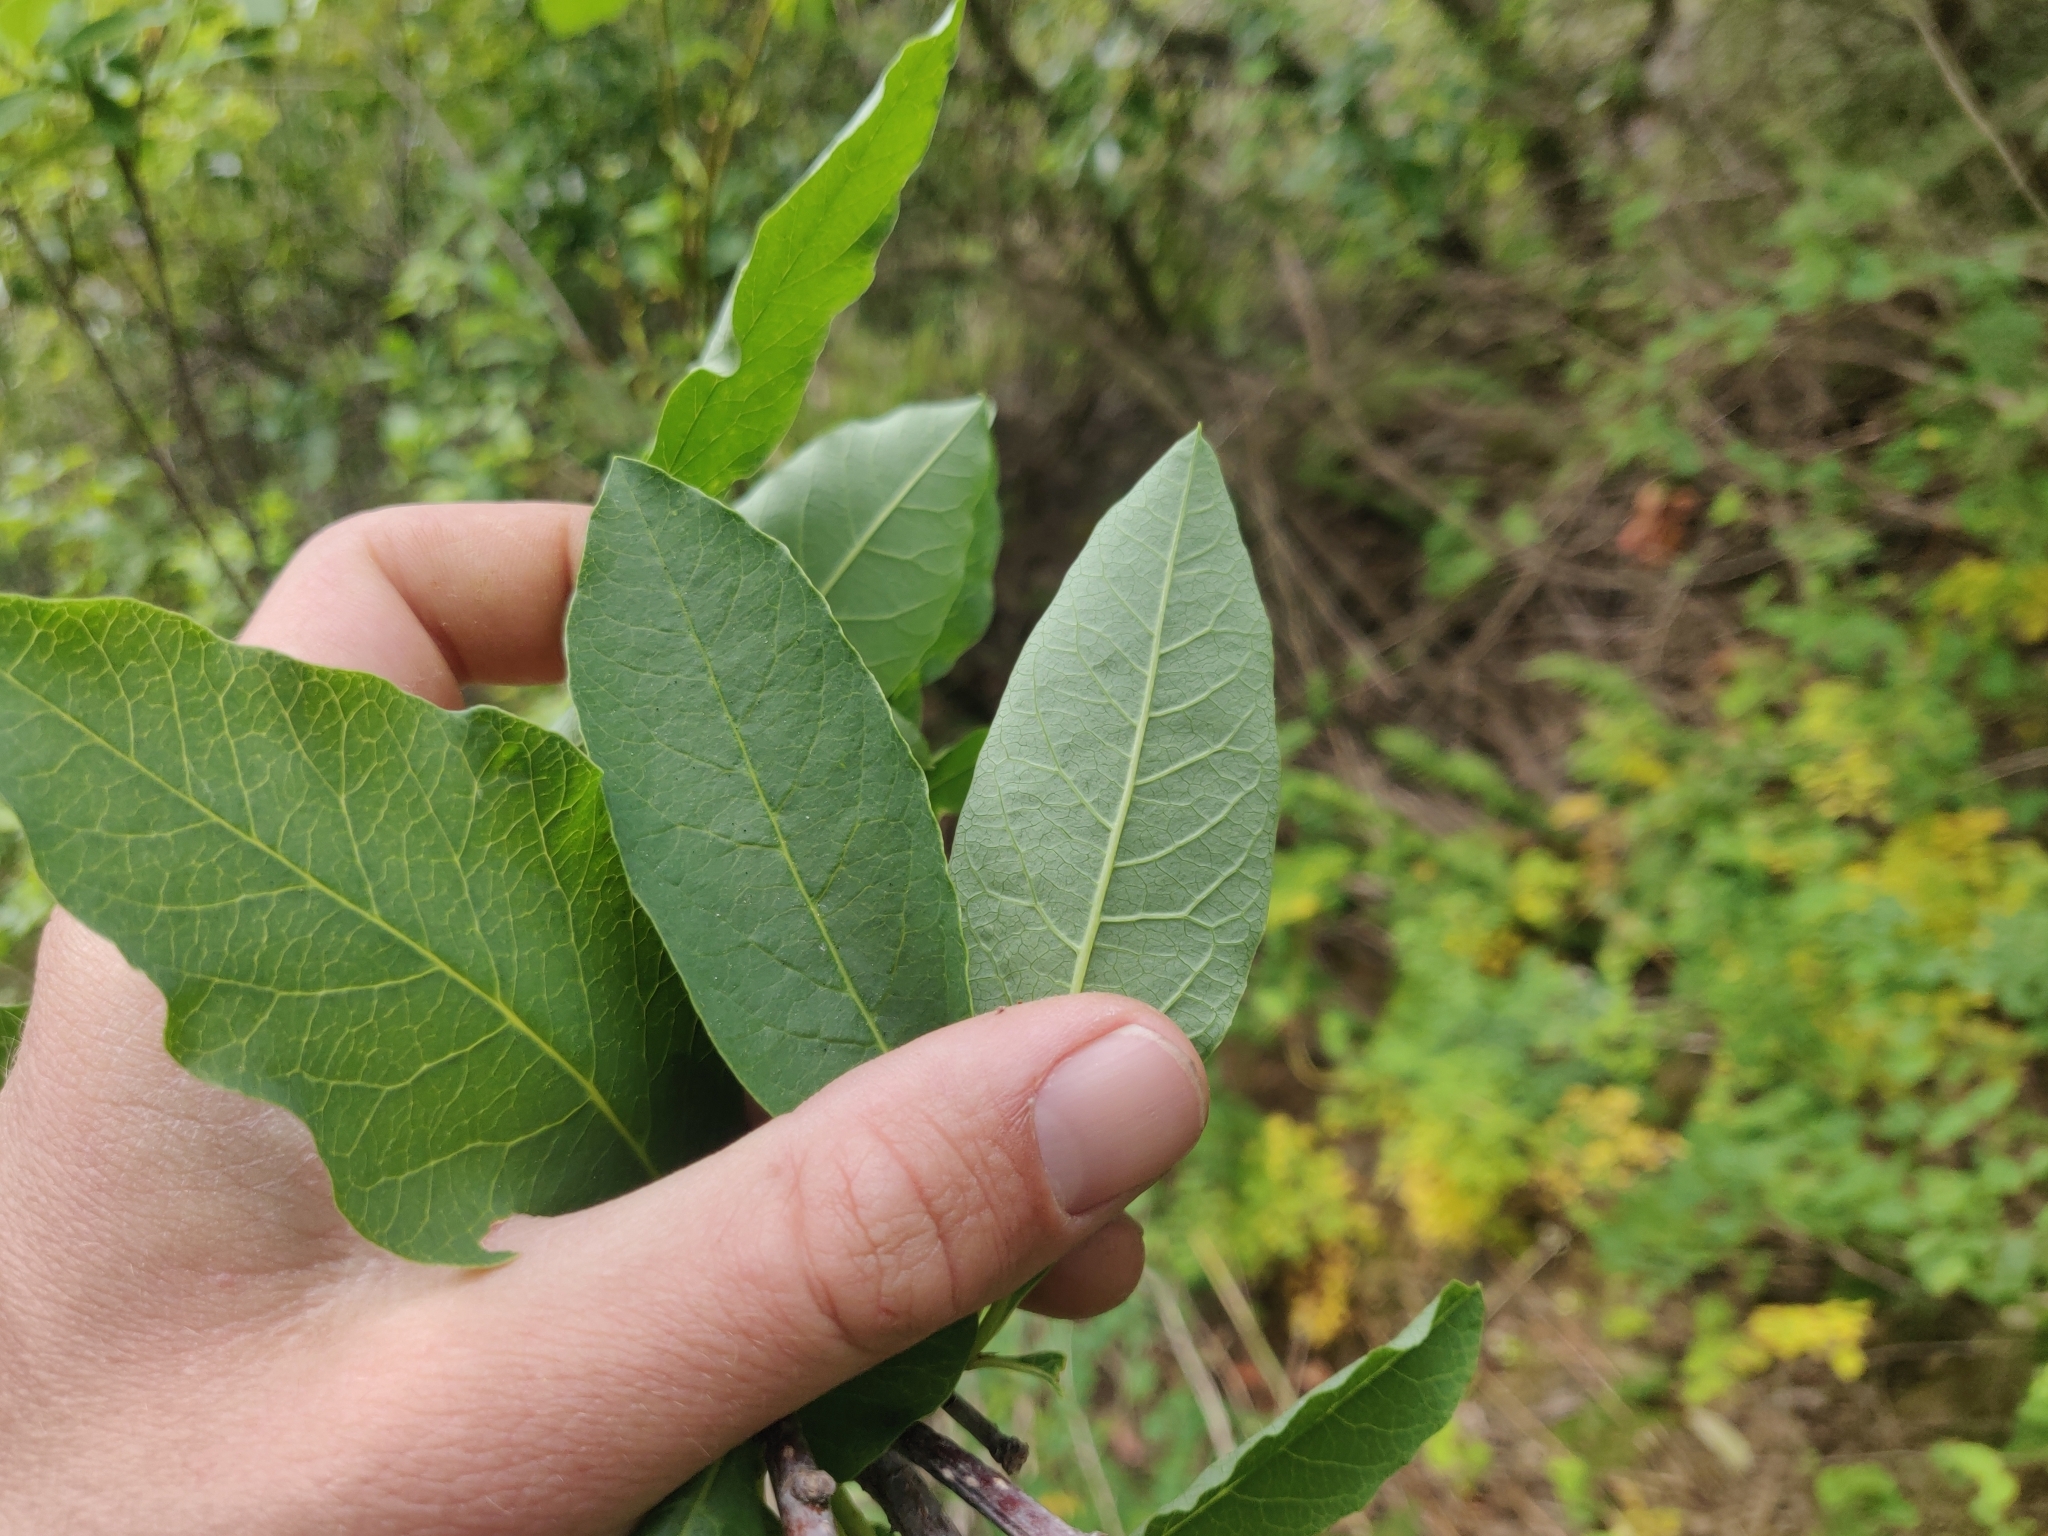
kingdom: Plantae
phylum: Tracheophyta
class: Magnoliopsida
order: Rosales
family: Rosaceae
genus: Oemleria
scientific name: Oemleria cerasiformis
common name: Osoberry
